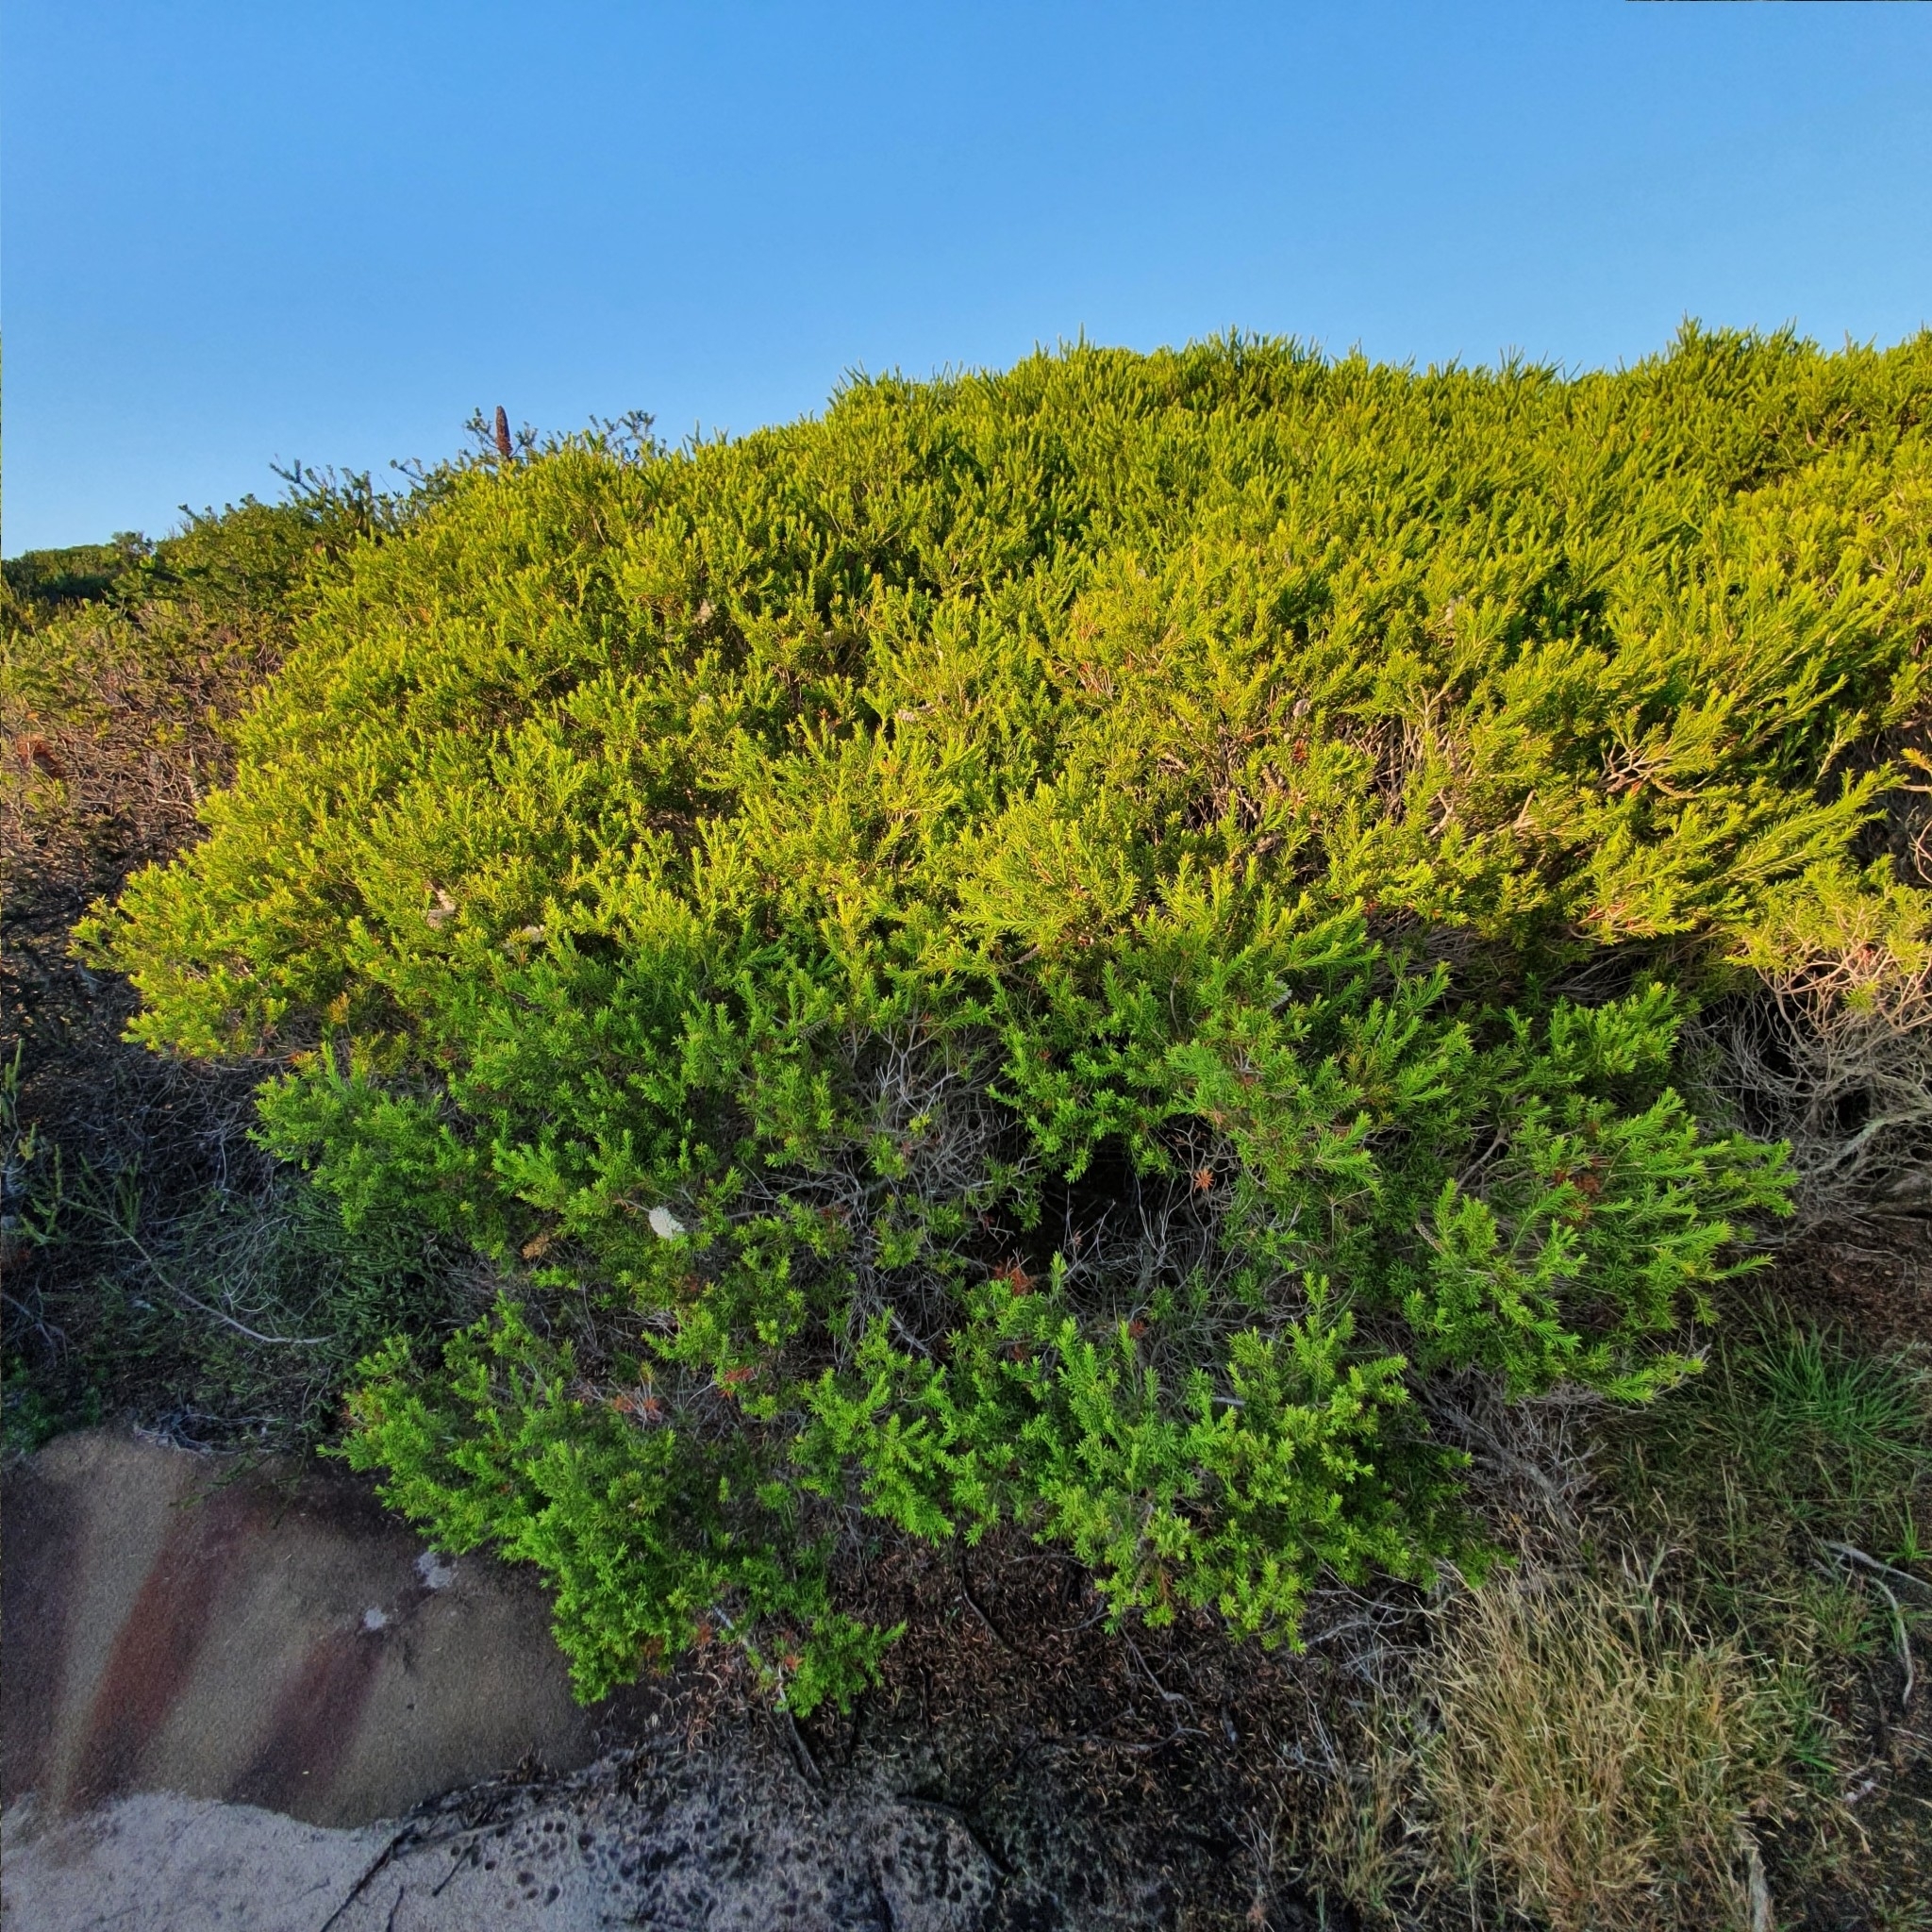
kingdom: Plantae
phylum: Tracheophyta
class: Magnoliopsida
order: Myrtales
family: Myrtaceae
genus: Melaleuca
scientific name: Melaleuca armillaris
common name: Bracelet honey myrtle
